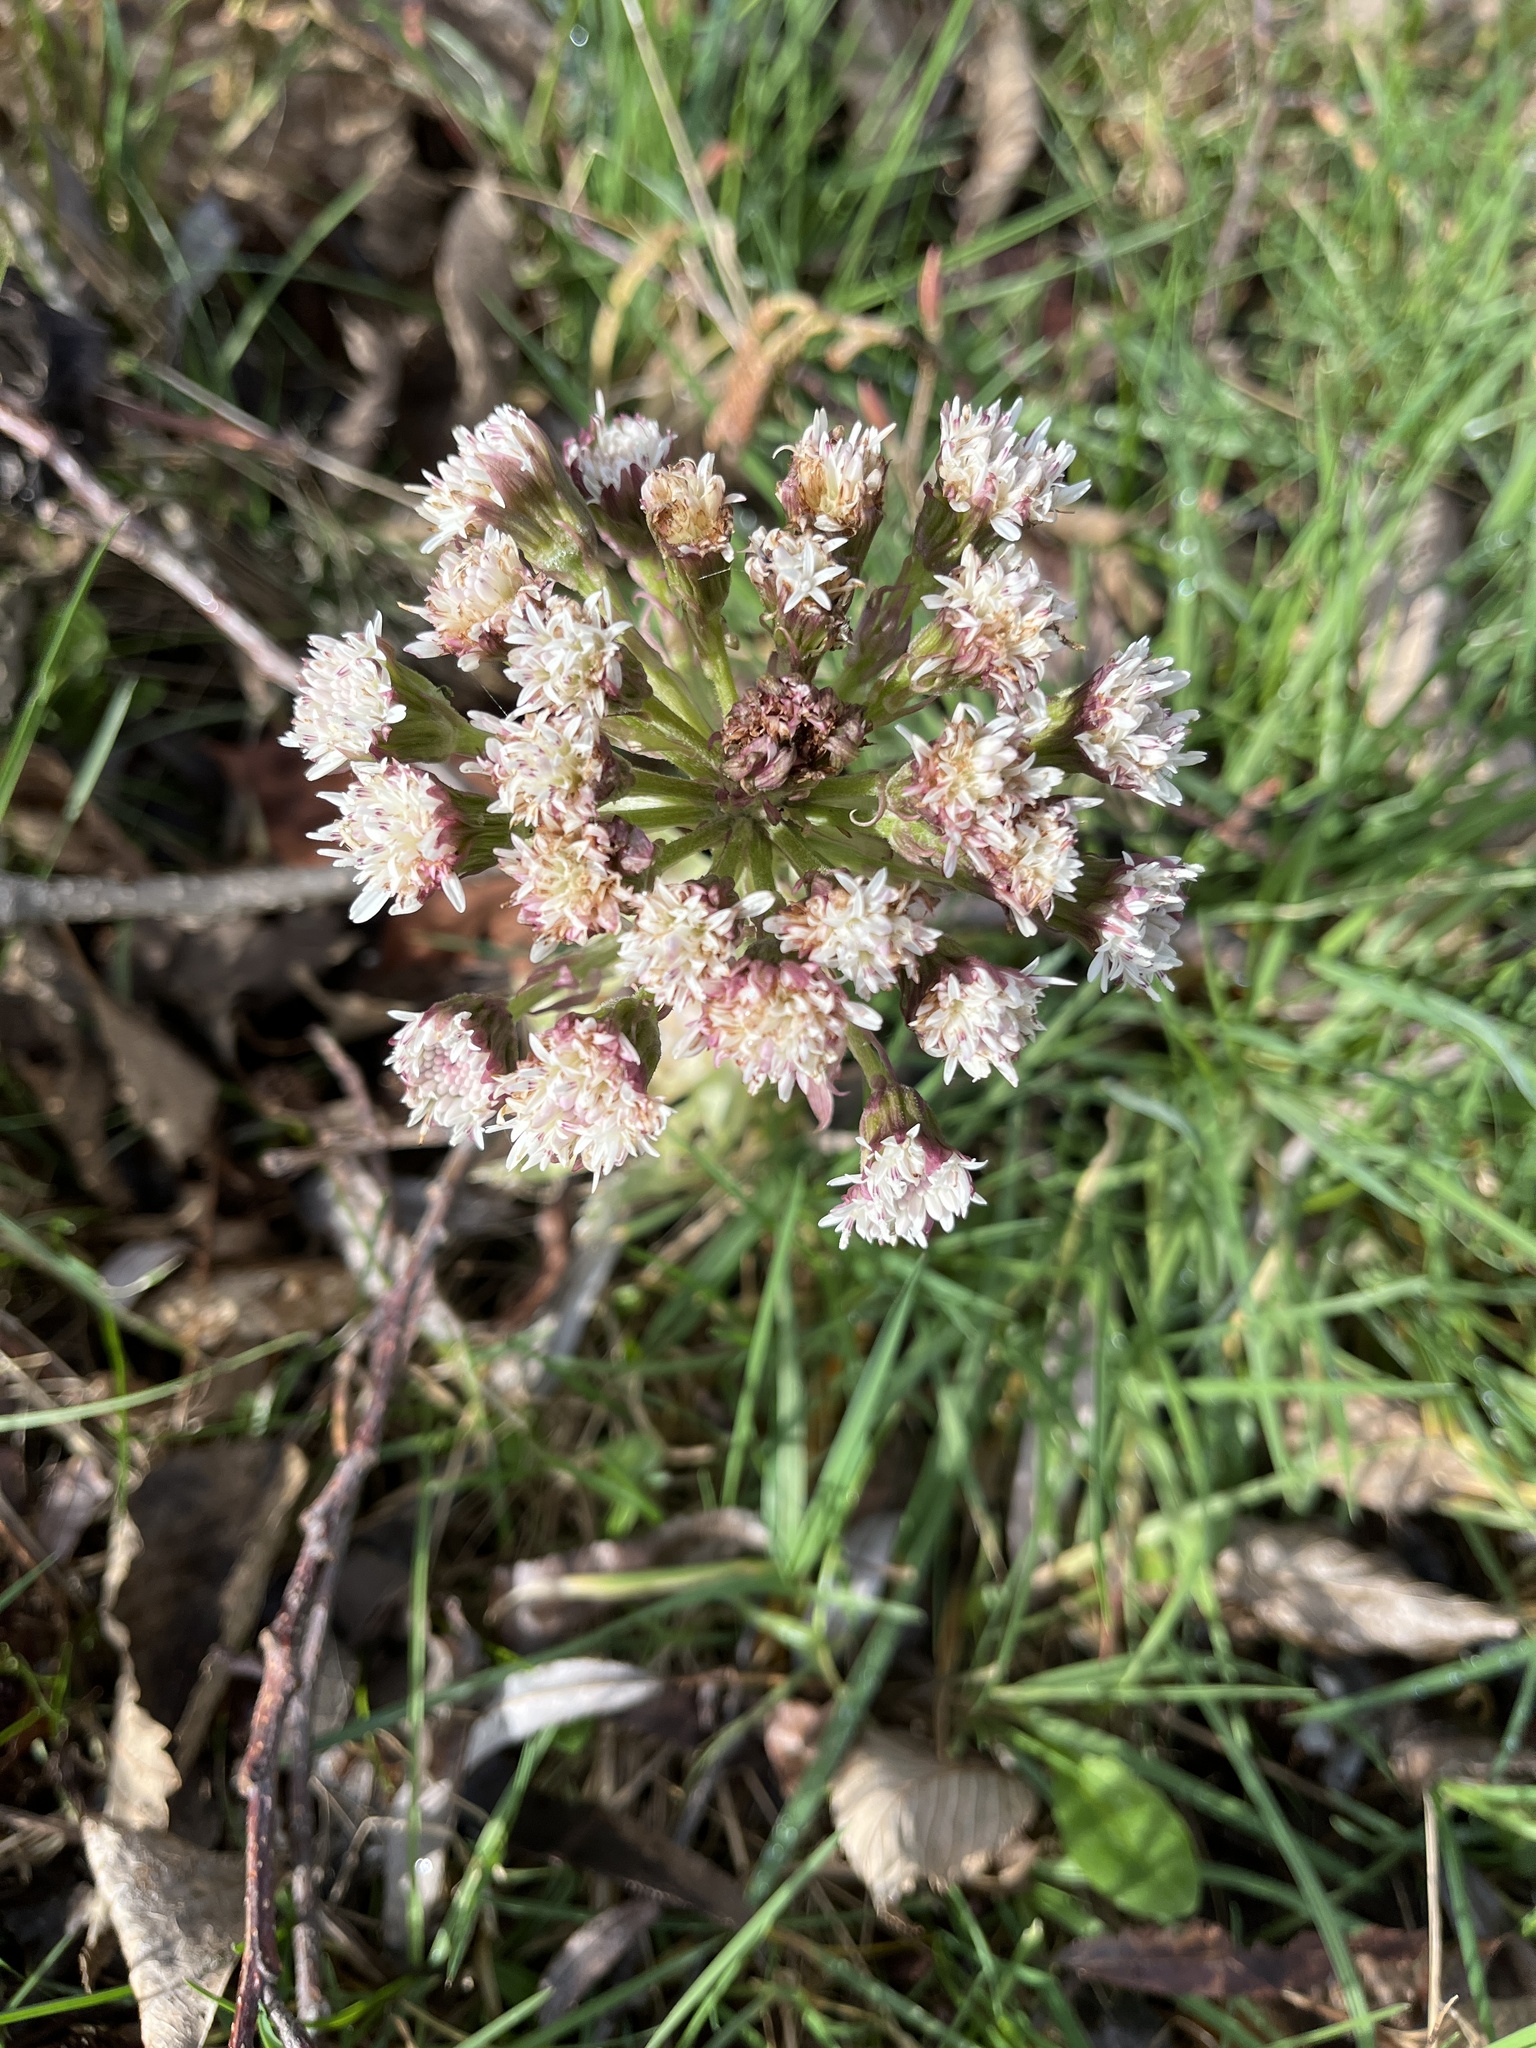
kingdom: Plantae
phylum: Tracheophyta
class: Magnoliopsida
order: Asterales
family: Asteraceae
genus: Petasites
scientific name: Petasites frigidus
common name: Arctic butterbur
